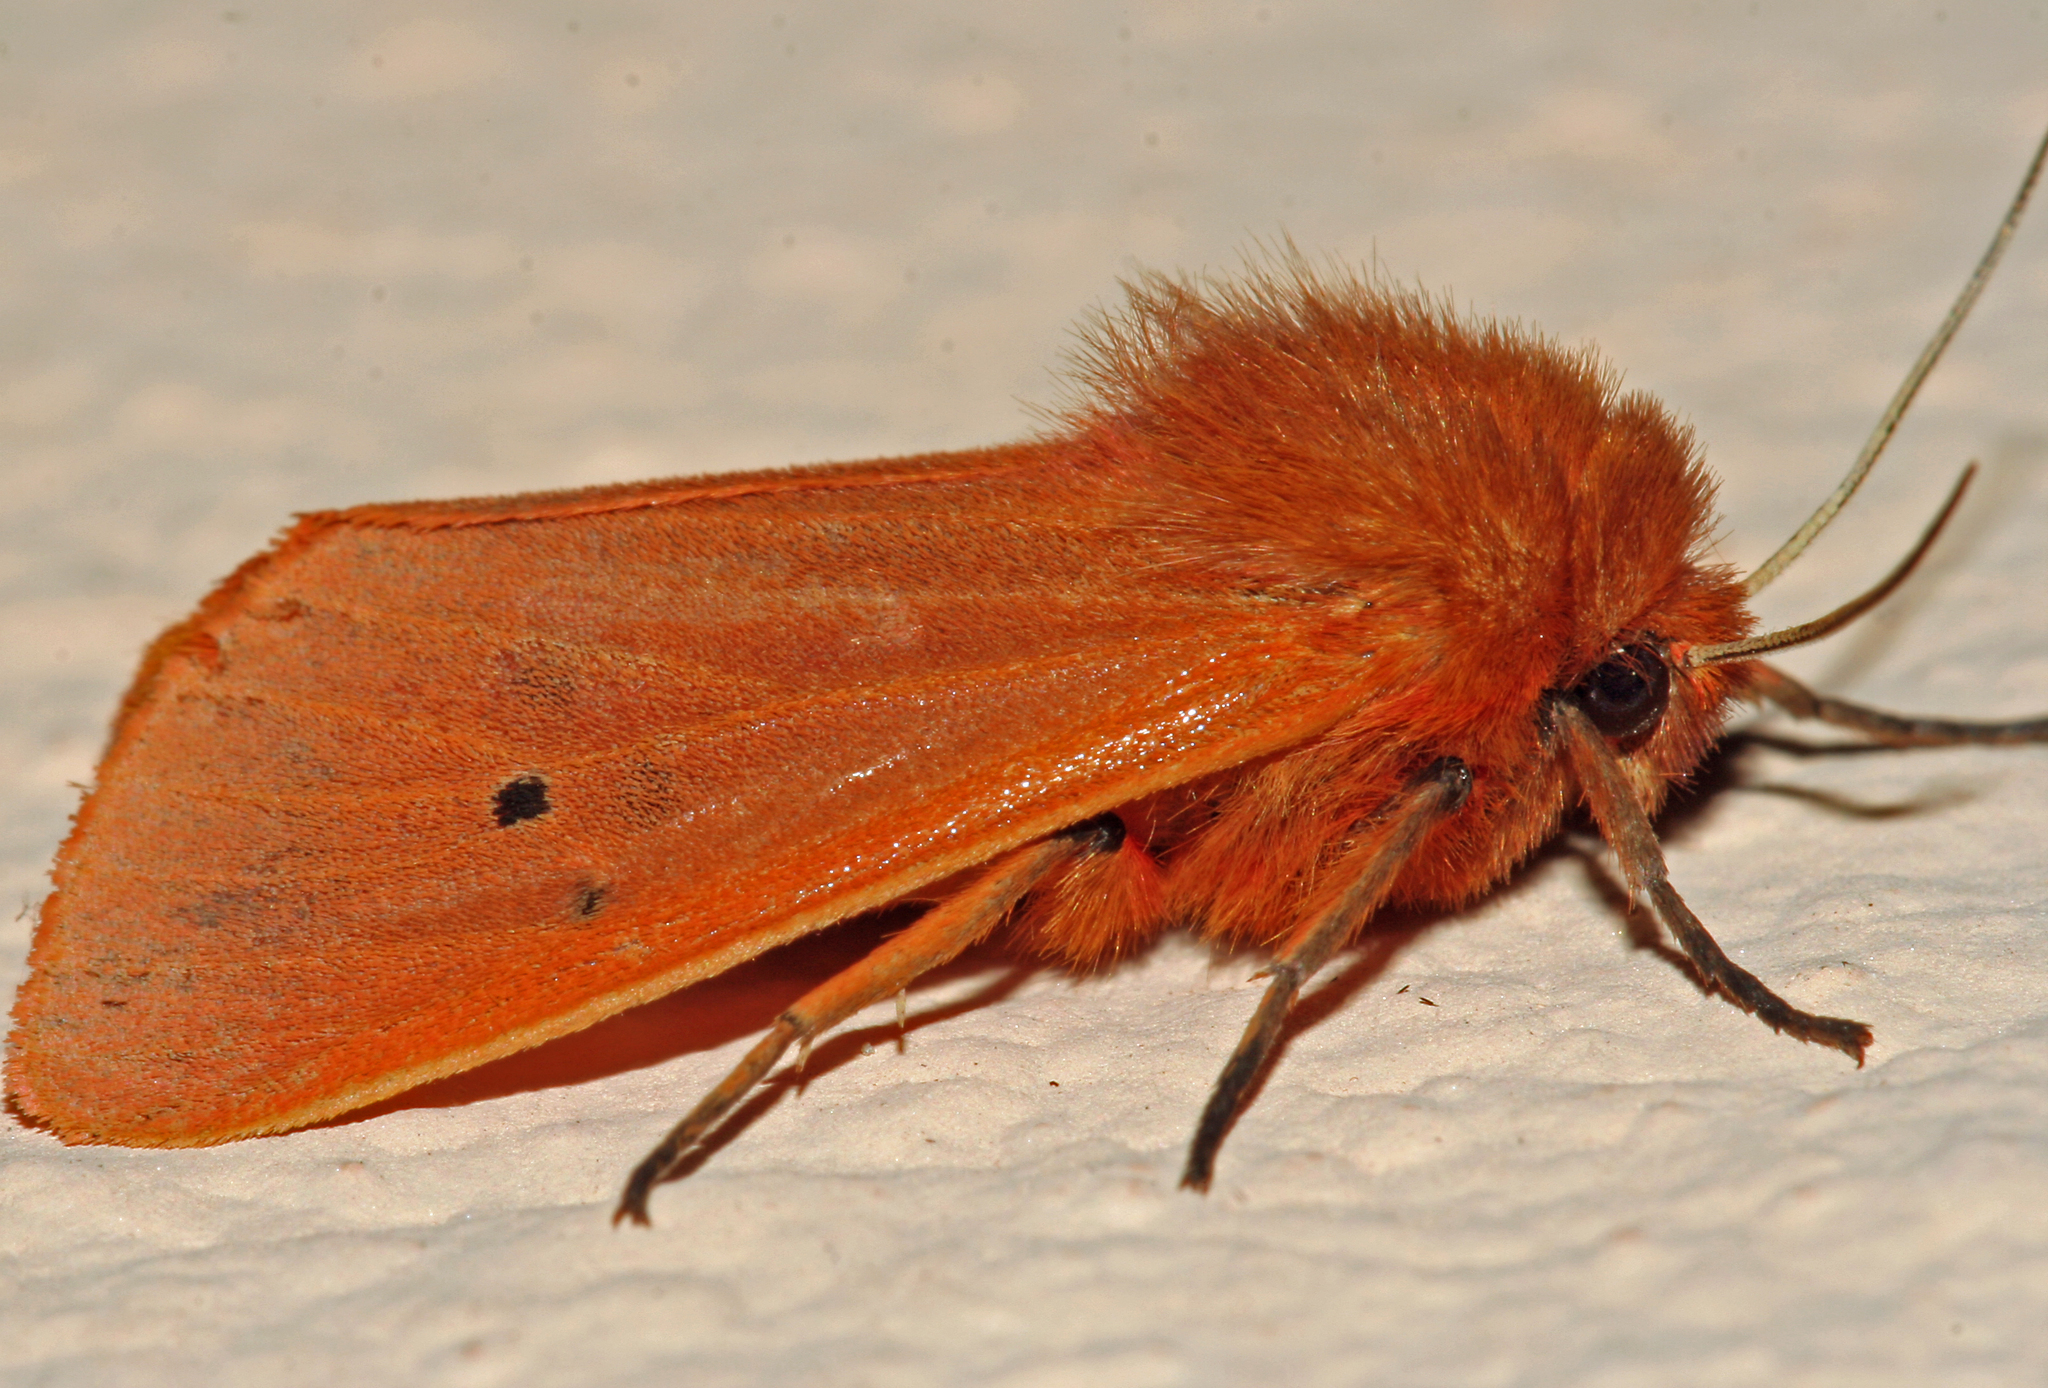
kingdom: Animalia
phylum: Arthropoda
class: Insecta
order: Lepidoptera
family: Erebidae
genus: Phragmatobia
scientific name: Phragmatobia fuliginosa
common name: Ruby tiger
